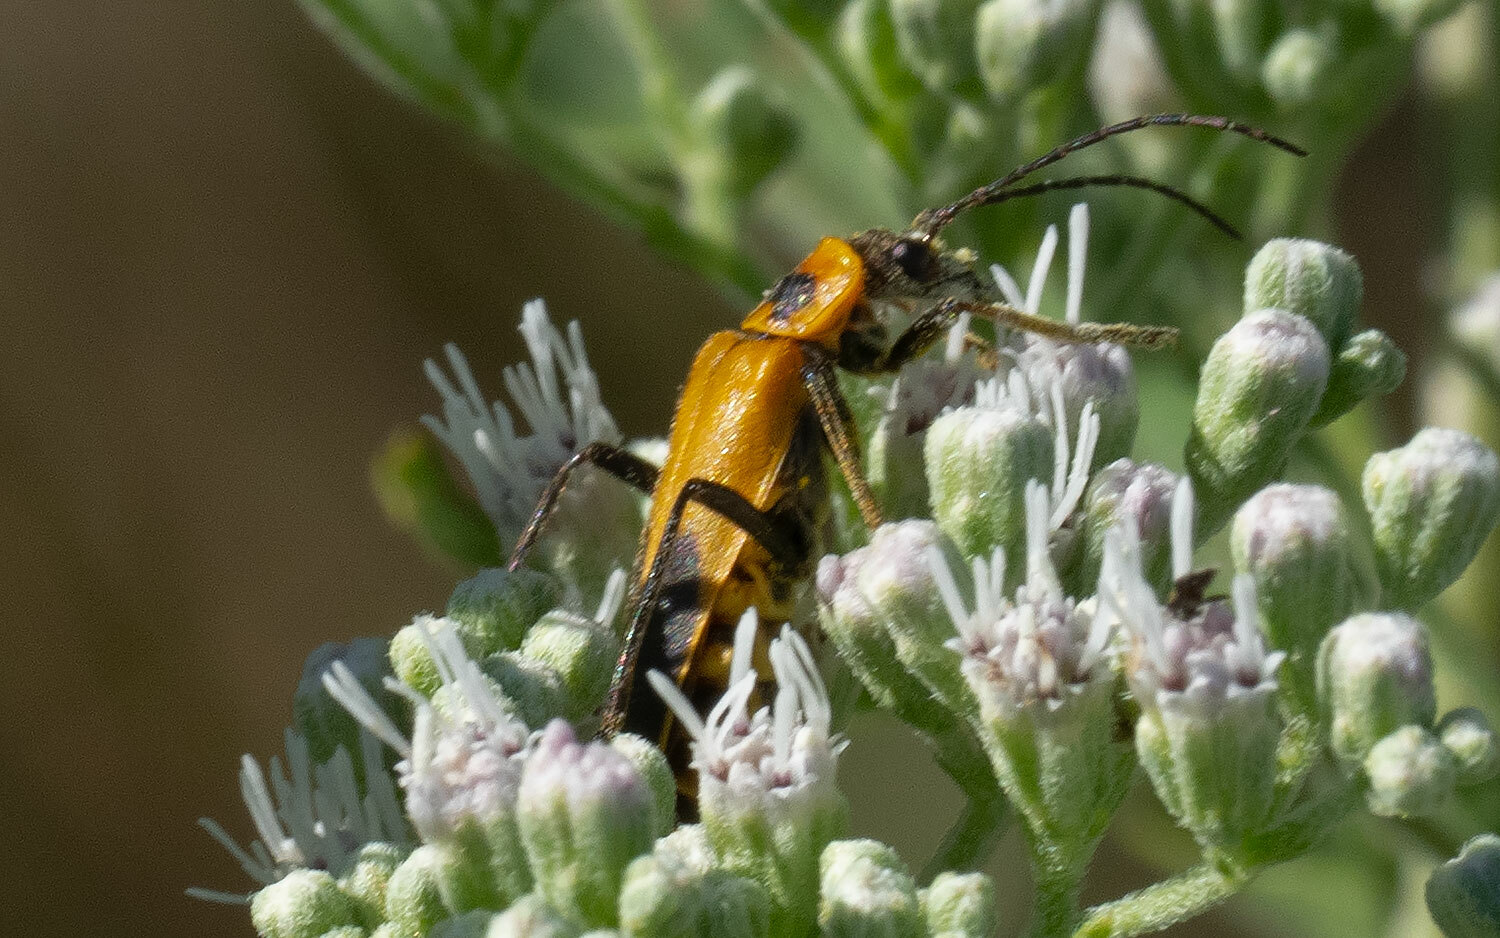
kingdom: Animalia
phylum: Arthropoda
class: Insecta
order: Coleoptera
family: Cantharidae
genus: Chauliognathus
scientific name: Chauliognathus pensylvanicus
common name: Goldenrod soldier beetle
